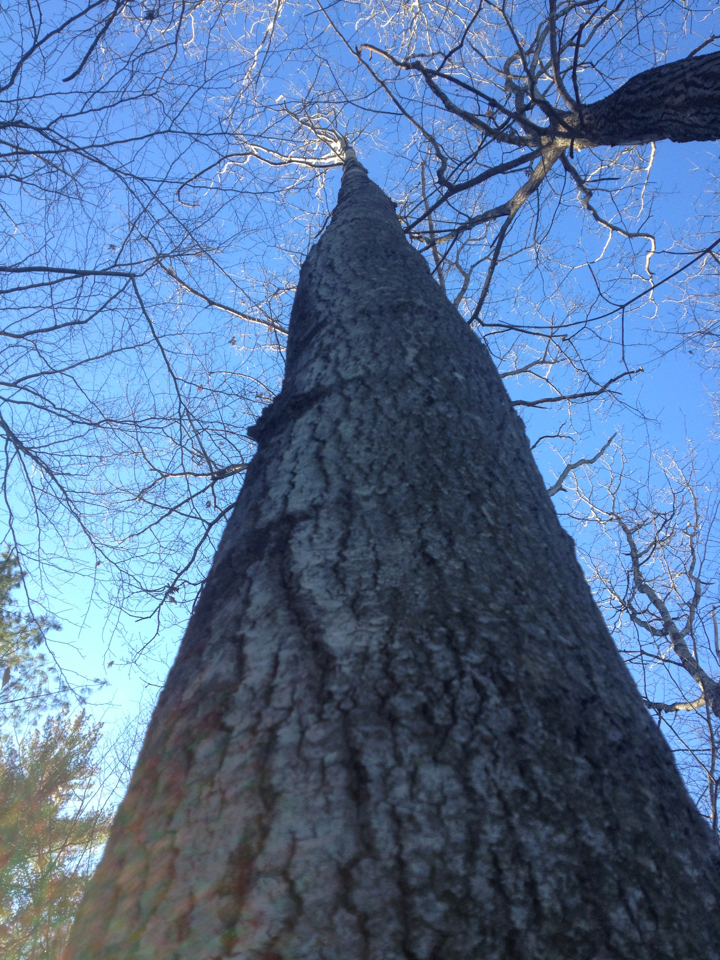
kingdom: Plantae
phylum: Tracheophyta
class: Magnoliopsida
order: Malpighiales
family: Salicaceae
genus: Populus
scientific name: Populus grandidentata
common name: Bigtooth aspen
